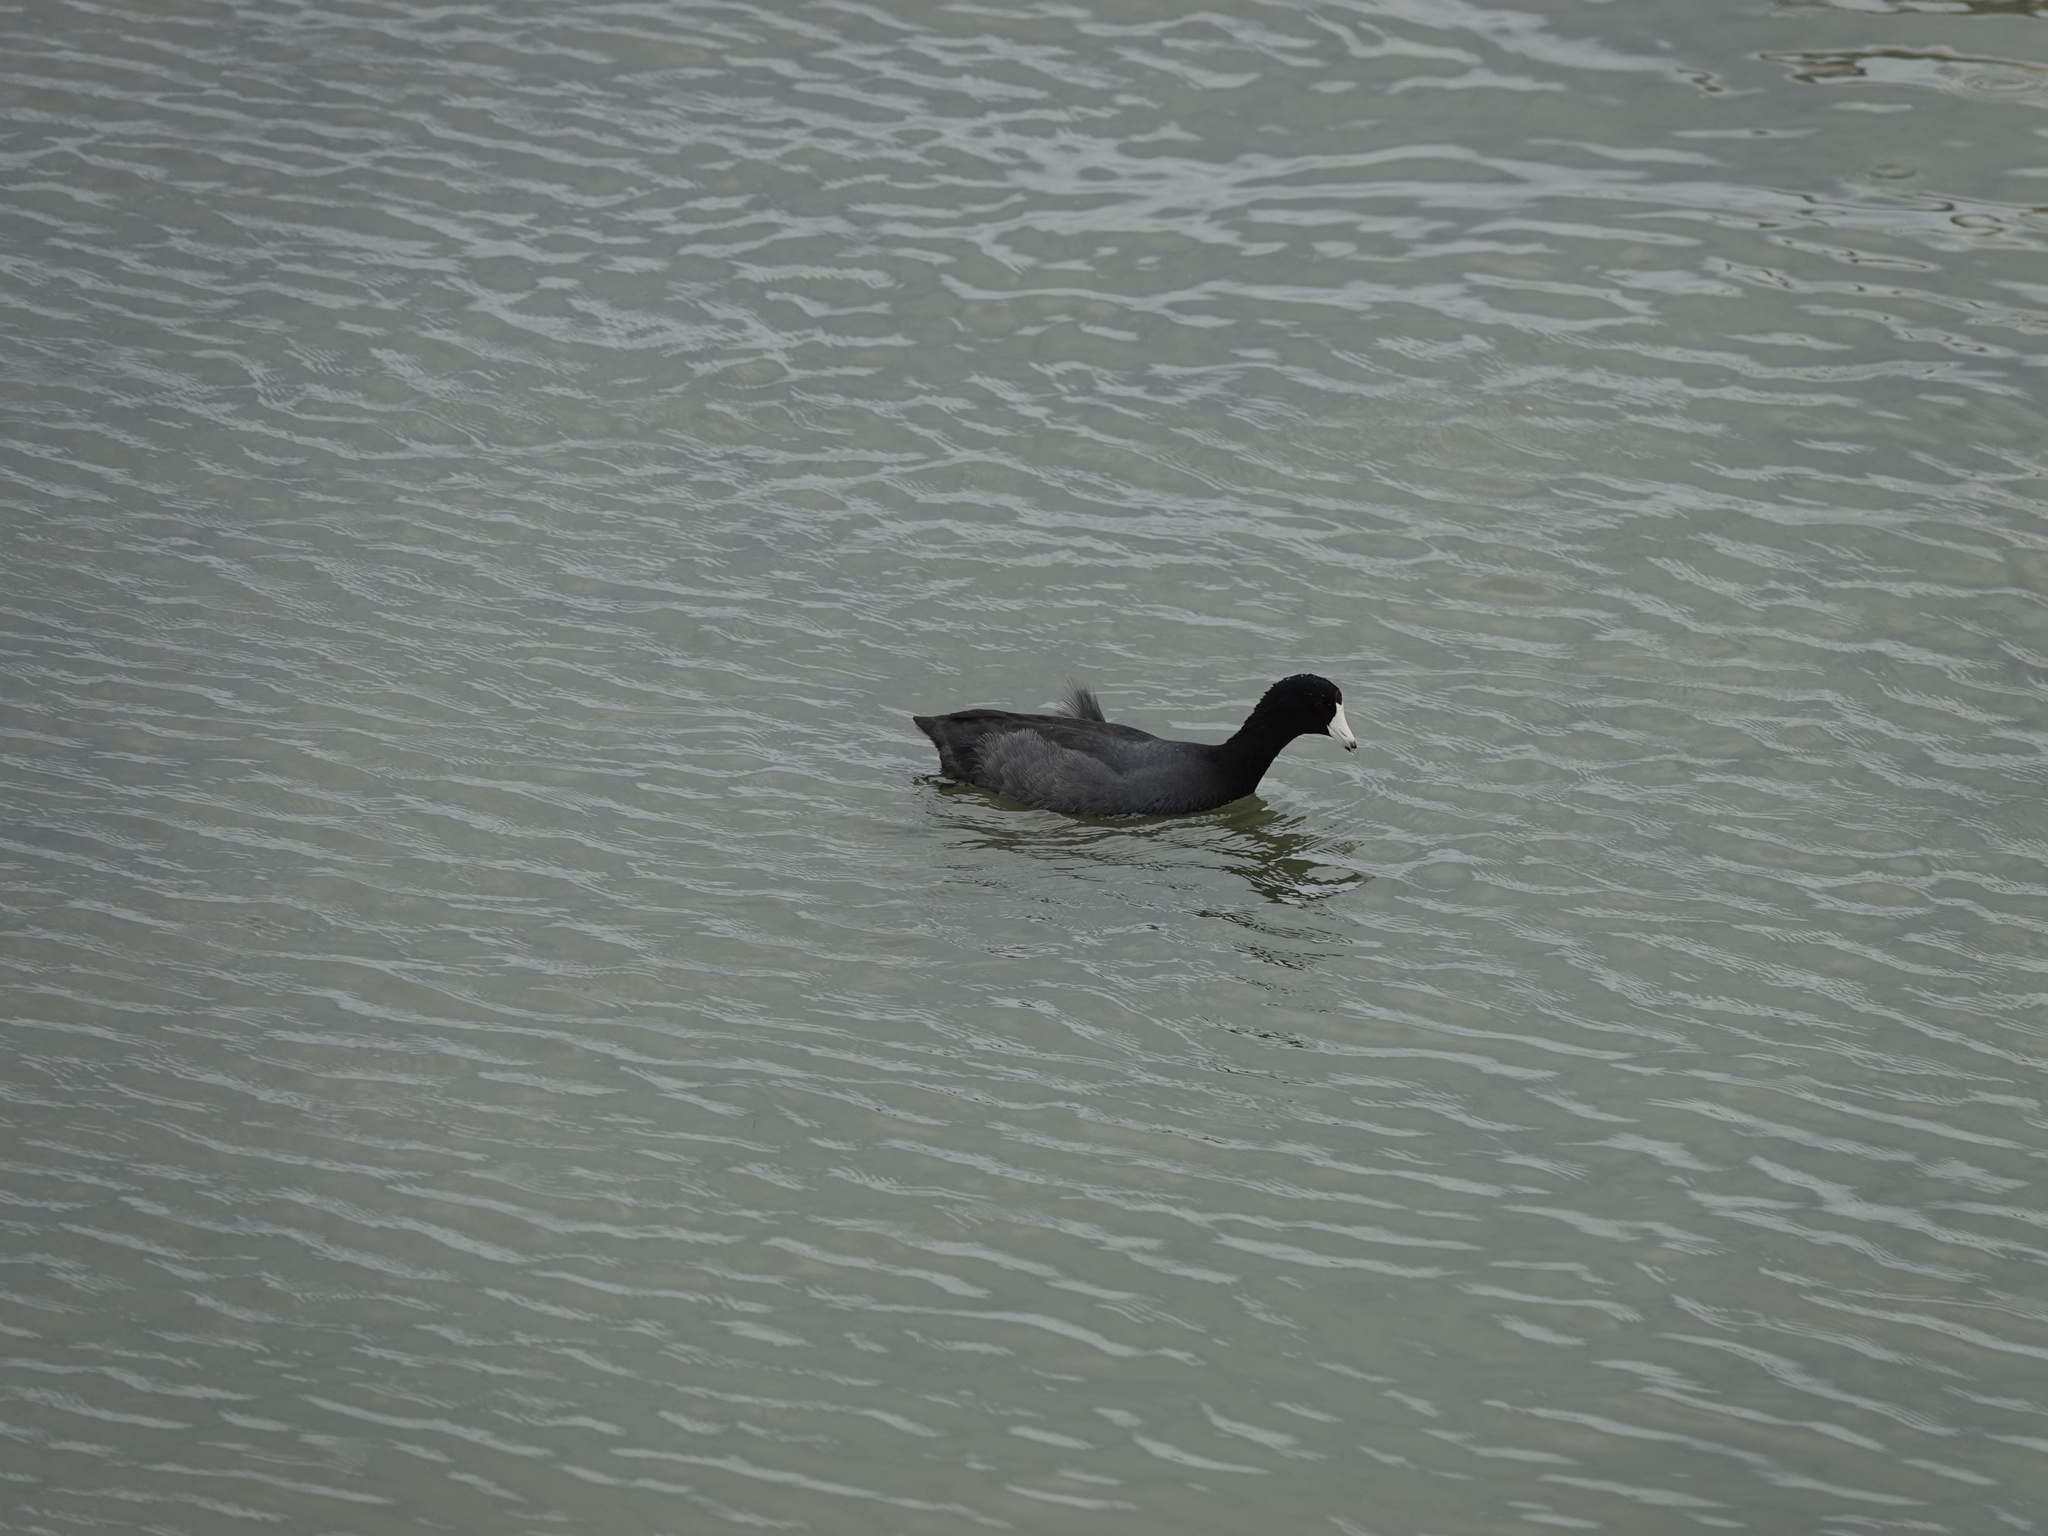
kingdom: Animalia
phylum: Chordata
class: Aves
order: Gruiformes
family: Rallidae
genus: Fulica
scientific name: Fulica americana
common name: American coot
